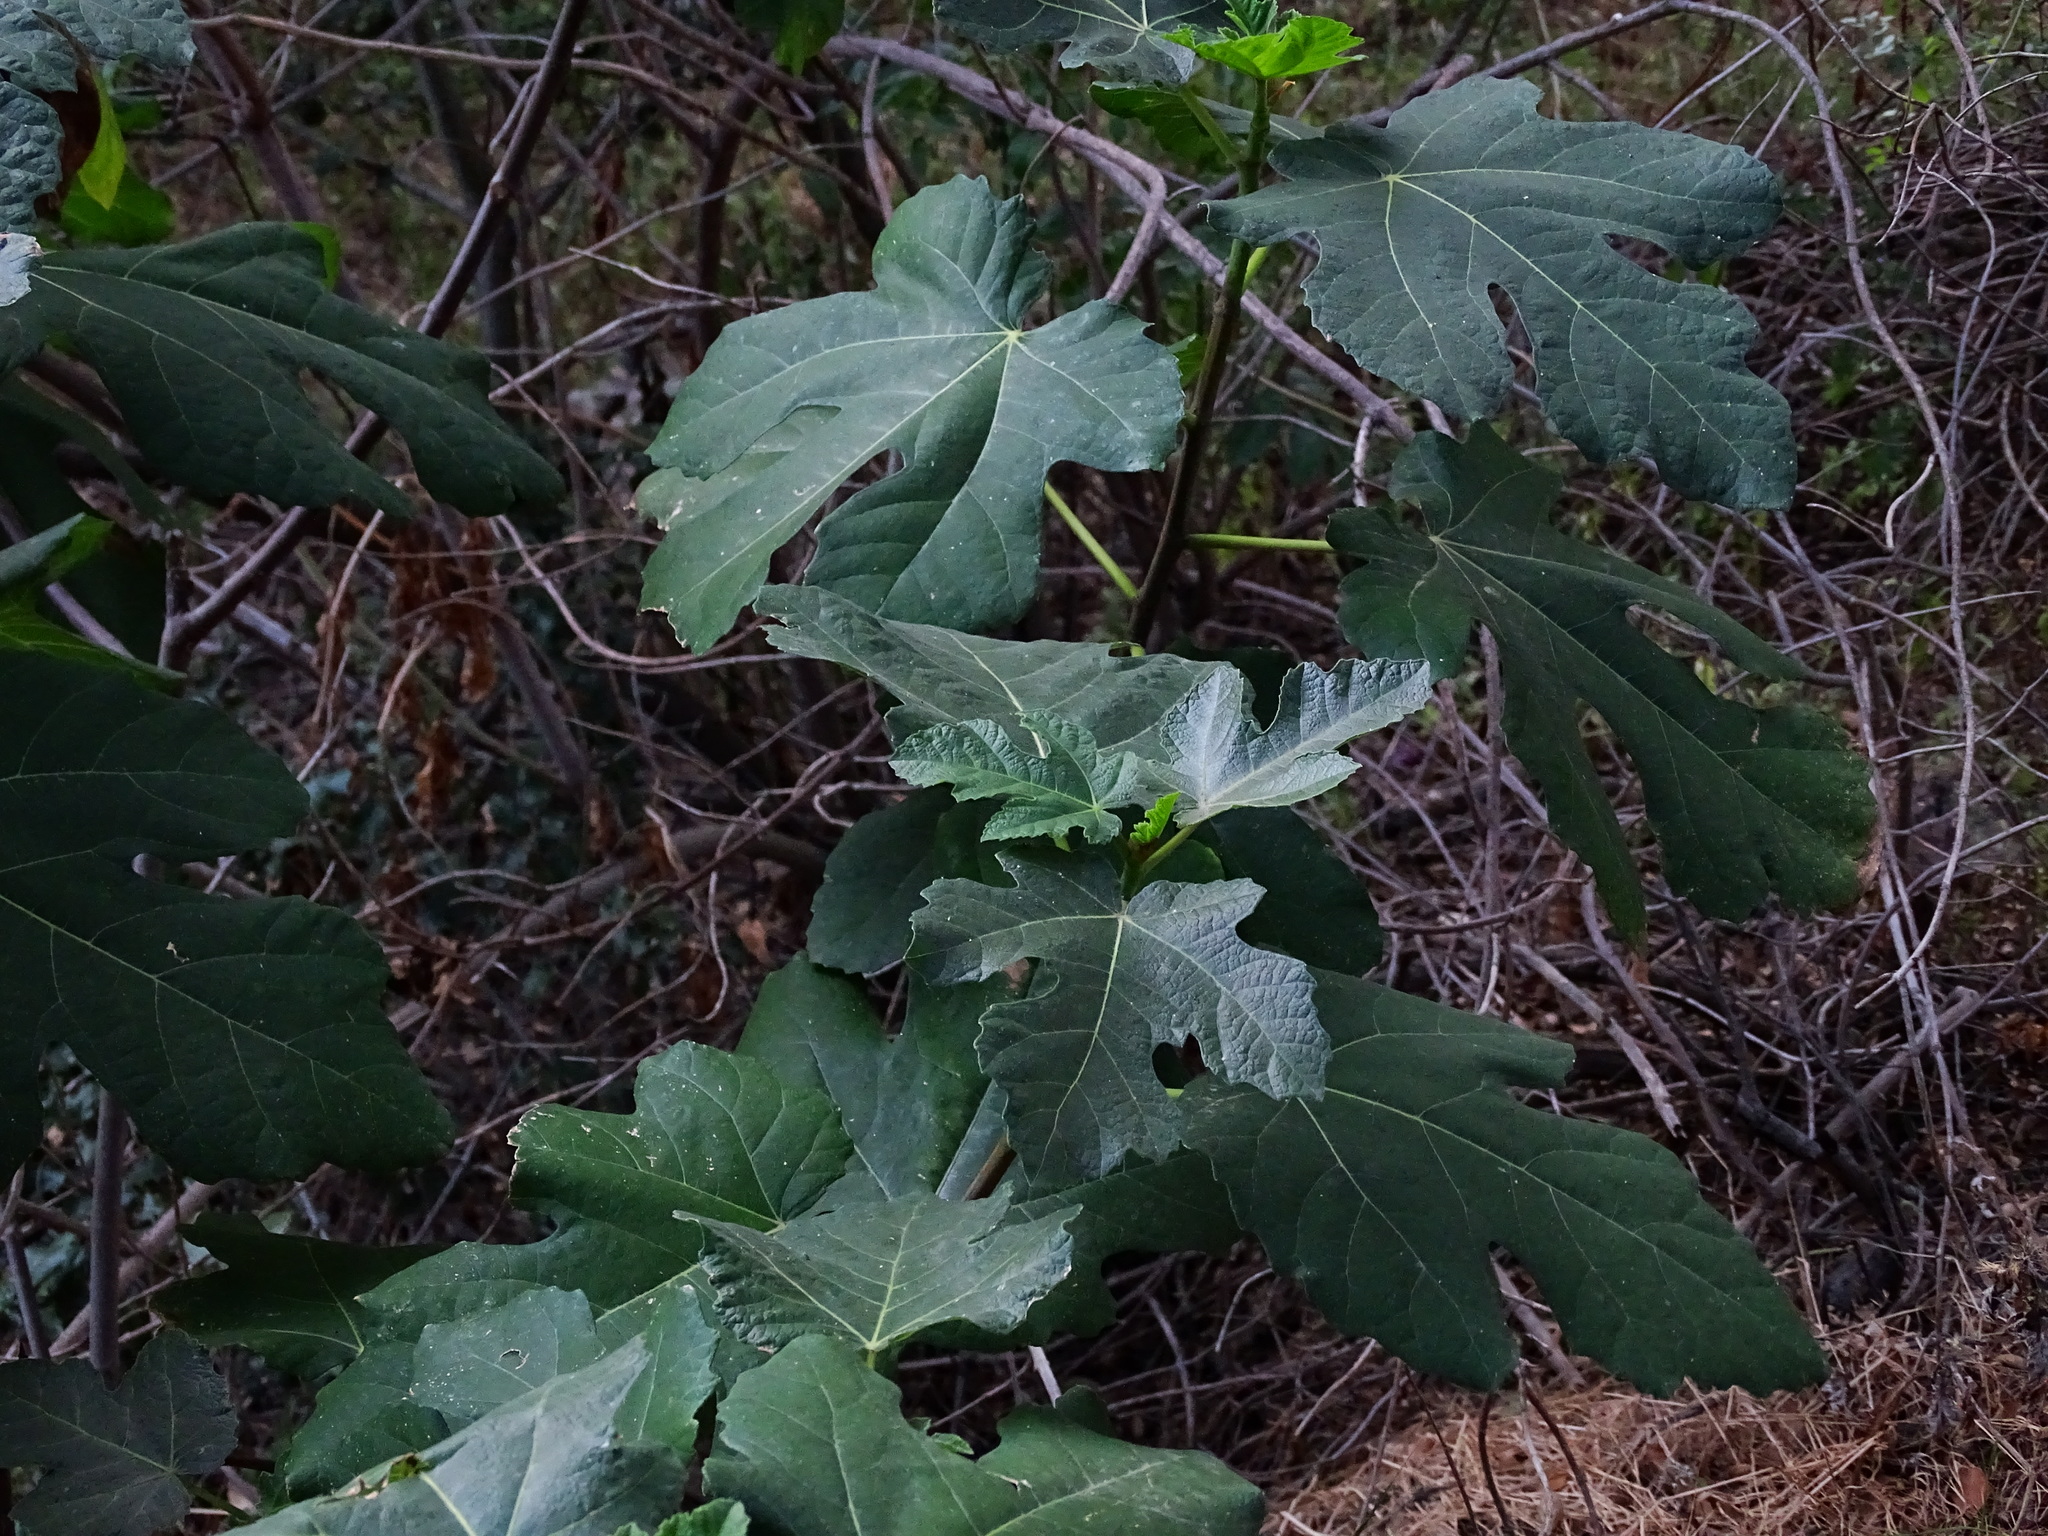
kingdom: Plantae
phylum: Tracheophyta
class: Magnoliopsida
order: Rosales
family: Moraceae
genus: Ficus
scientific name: Ficus carica
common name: Fig
